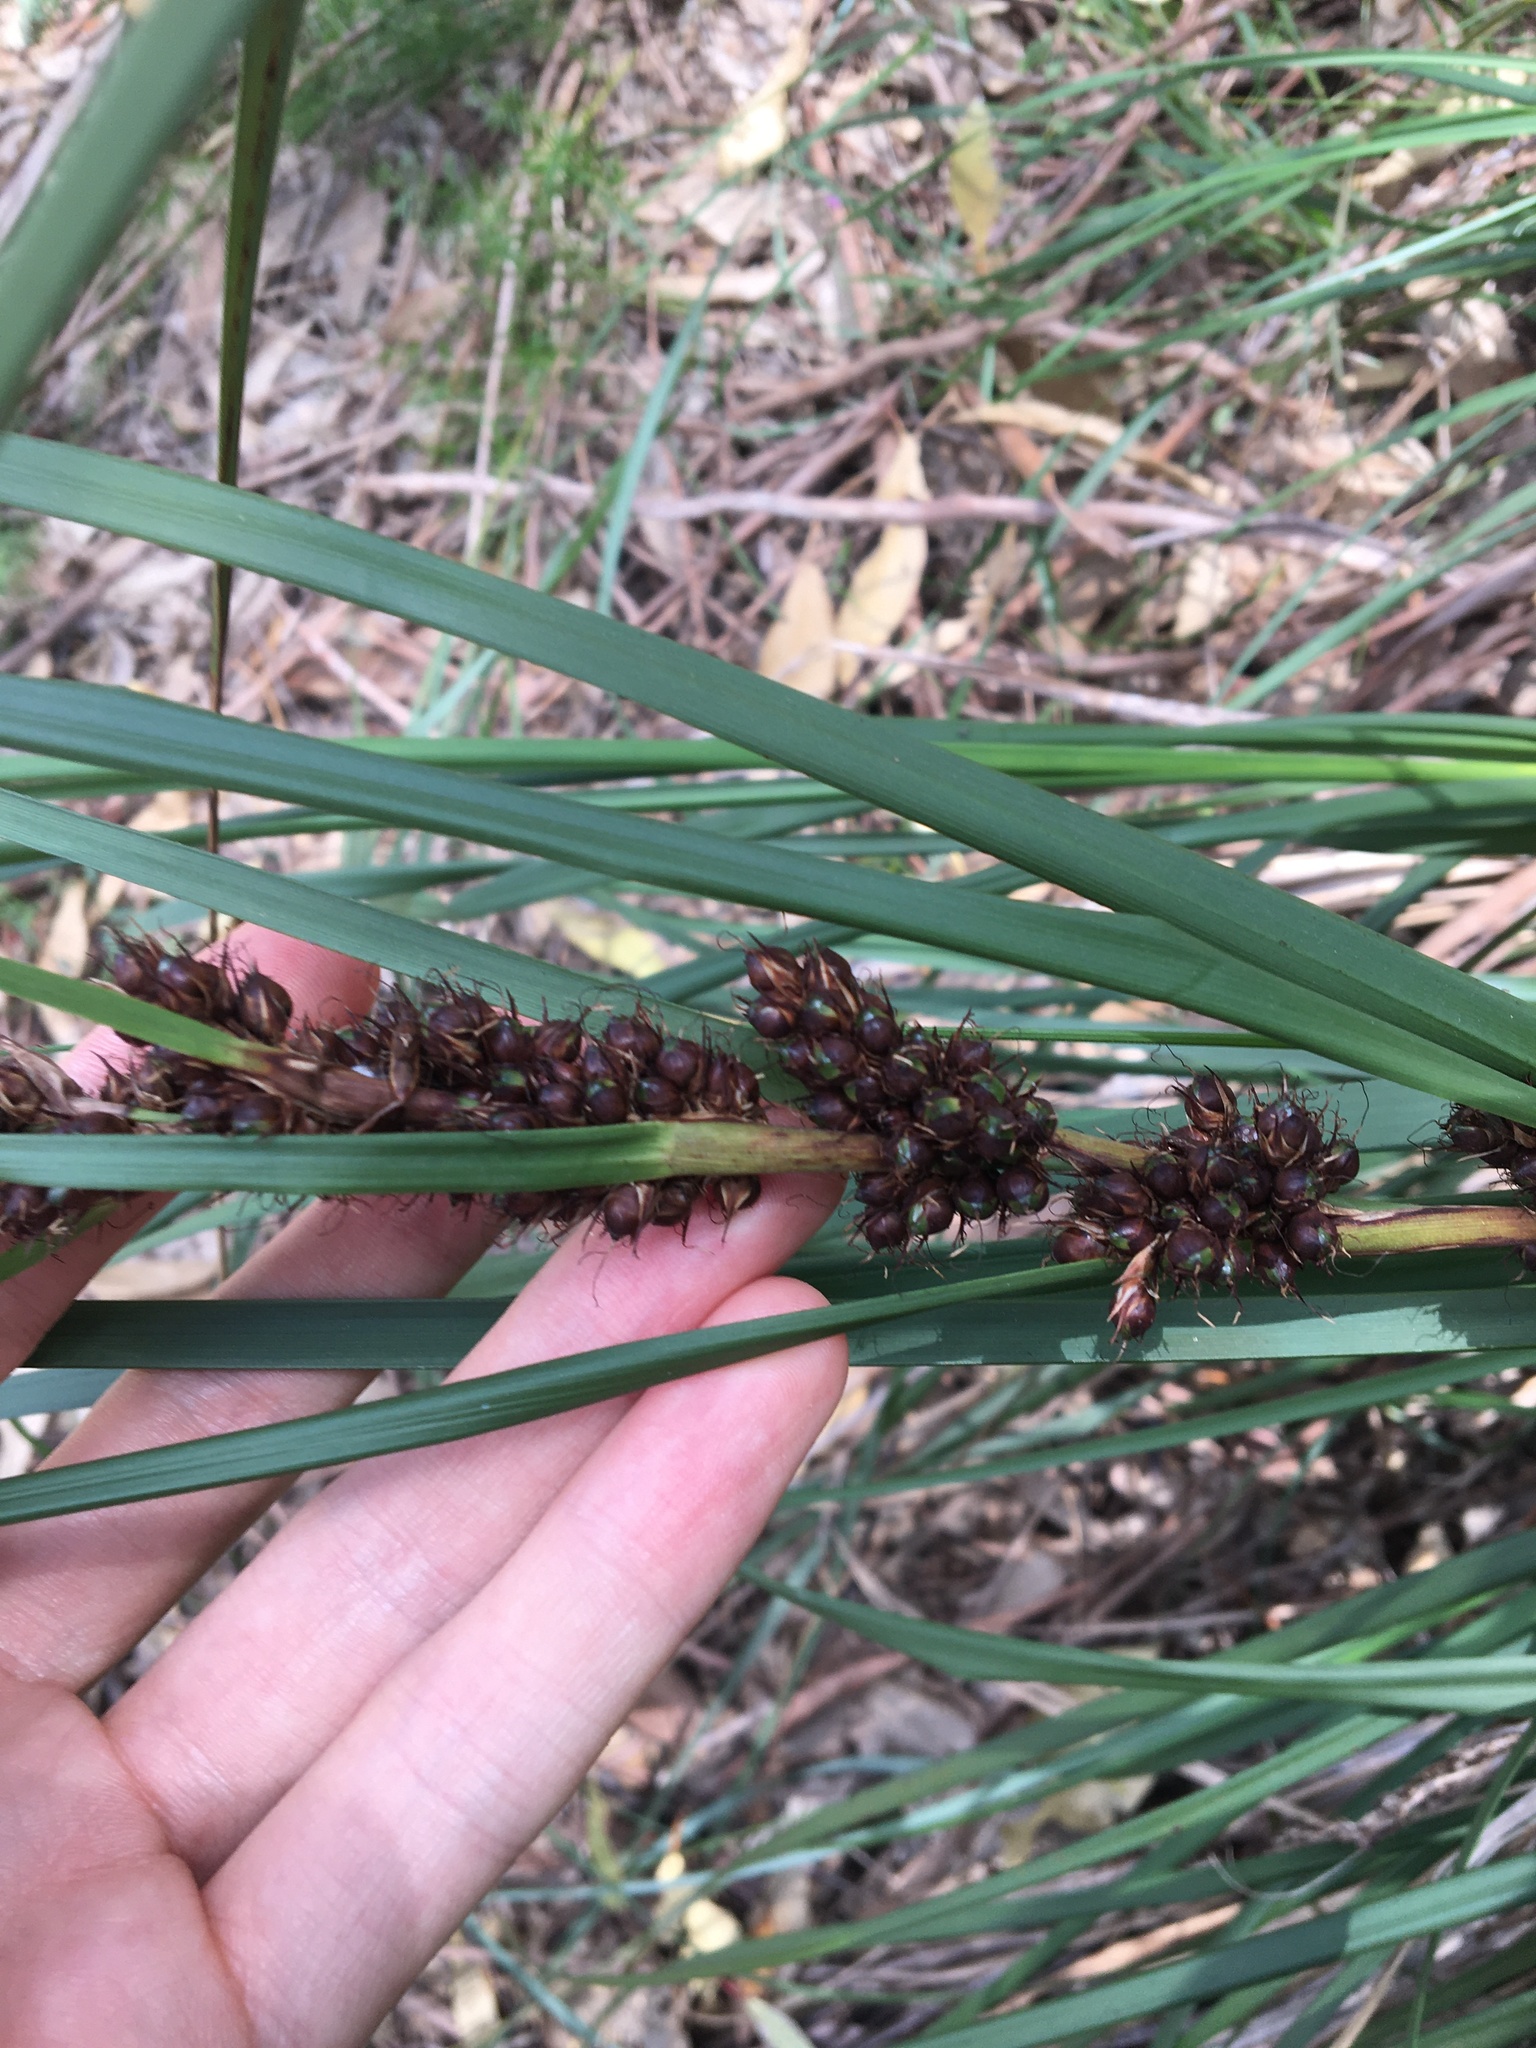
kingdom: Plantae
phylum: Tracheophyta
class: Liliopsida
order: Poales
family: Cyperaceae
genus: Gahnia
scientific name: Gahnia aspera
